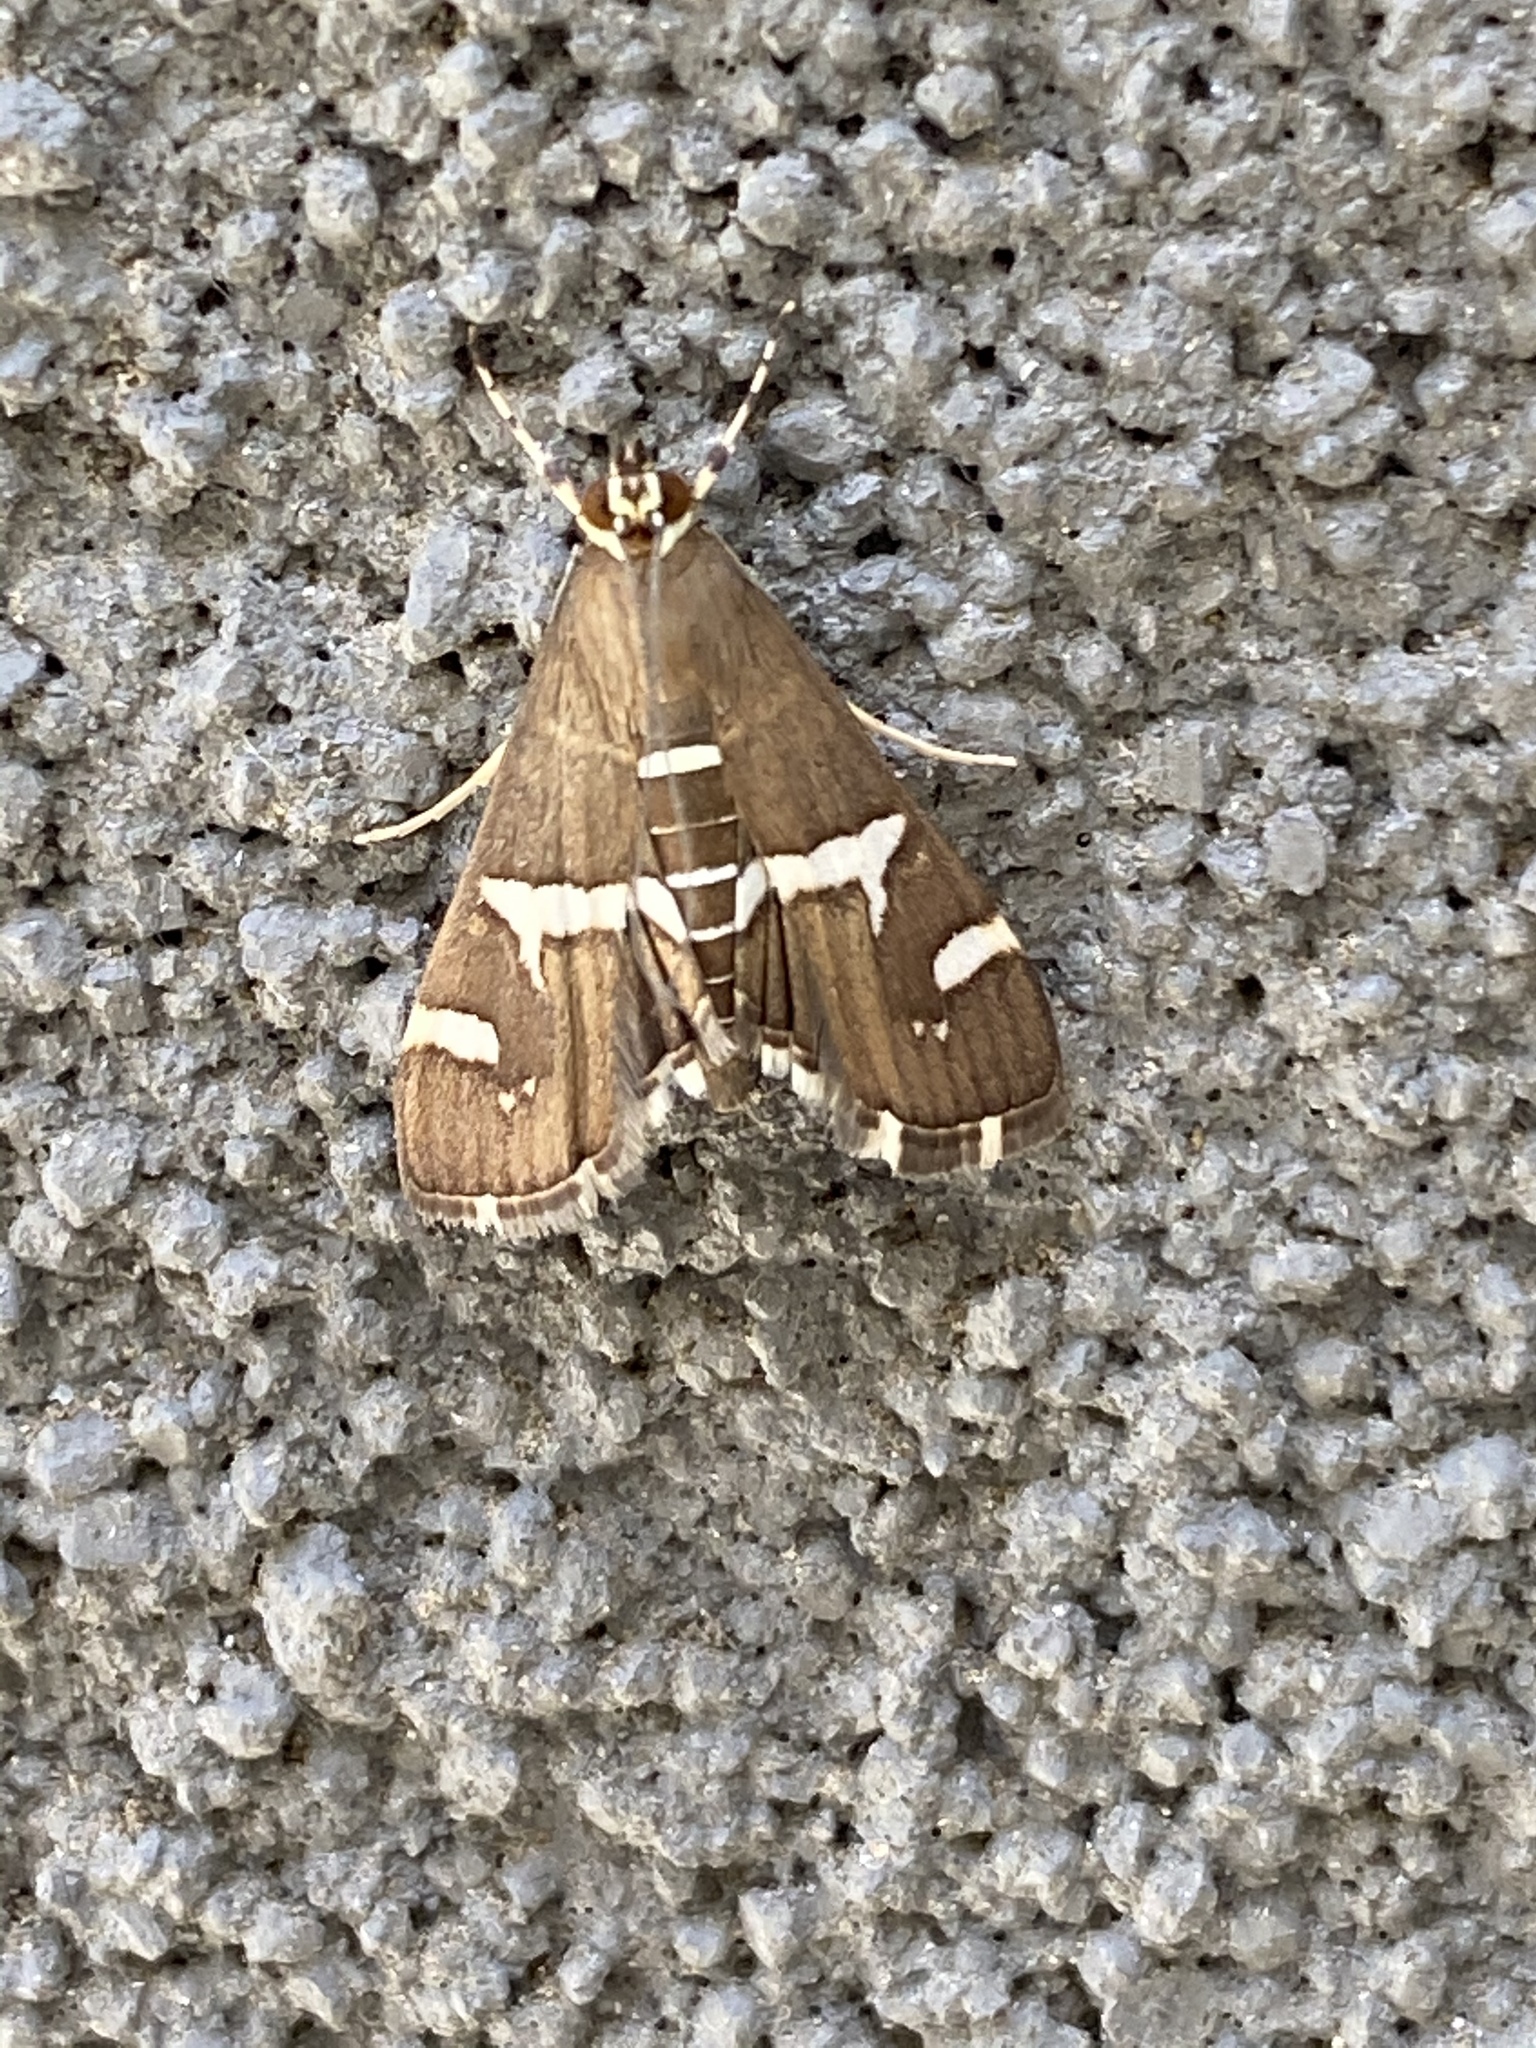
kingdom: Animalia
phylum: Arthropoda
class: Insecta
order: Lepidoptera
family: Crambidae
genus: Spoladea
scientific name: Spoladea recurvalis
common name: Beet webworm moth
